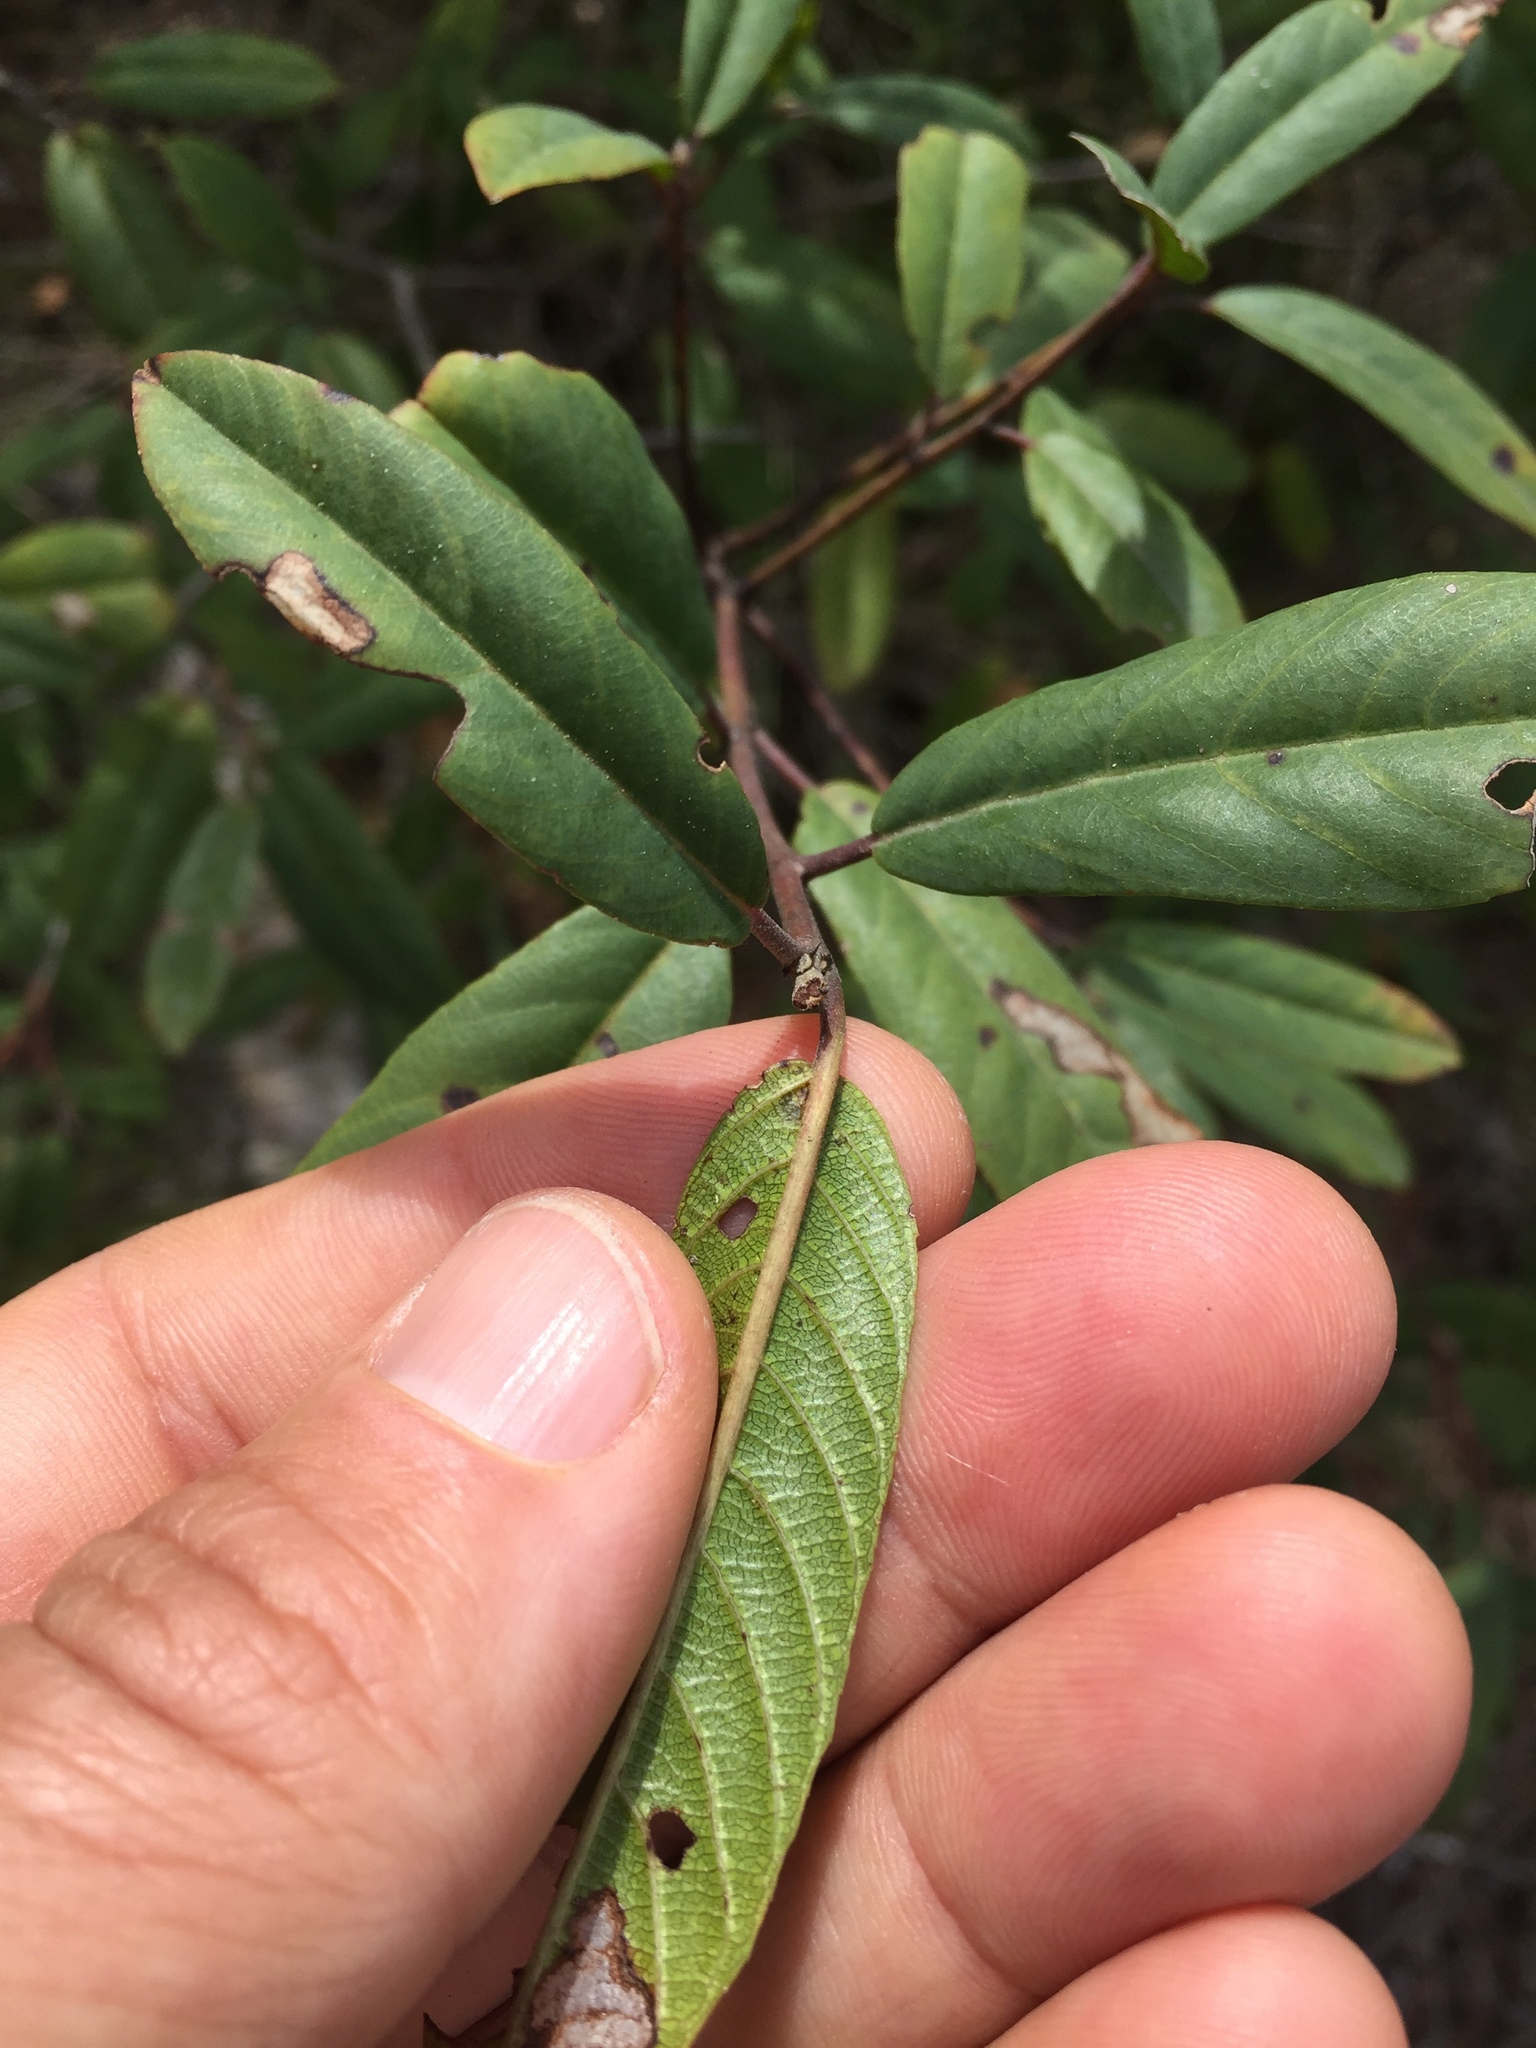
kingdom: Plantae
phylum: Tracheophyta
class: Magnoliopsida
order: Rosales
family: Rhamnaceae
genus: Frangula
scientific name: Frangula californica
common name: California buckthorn
